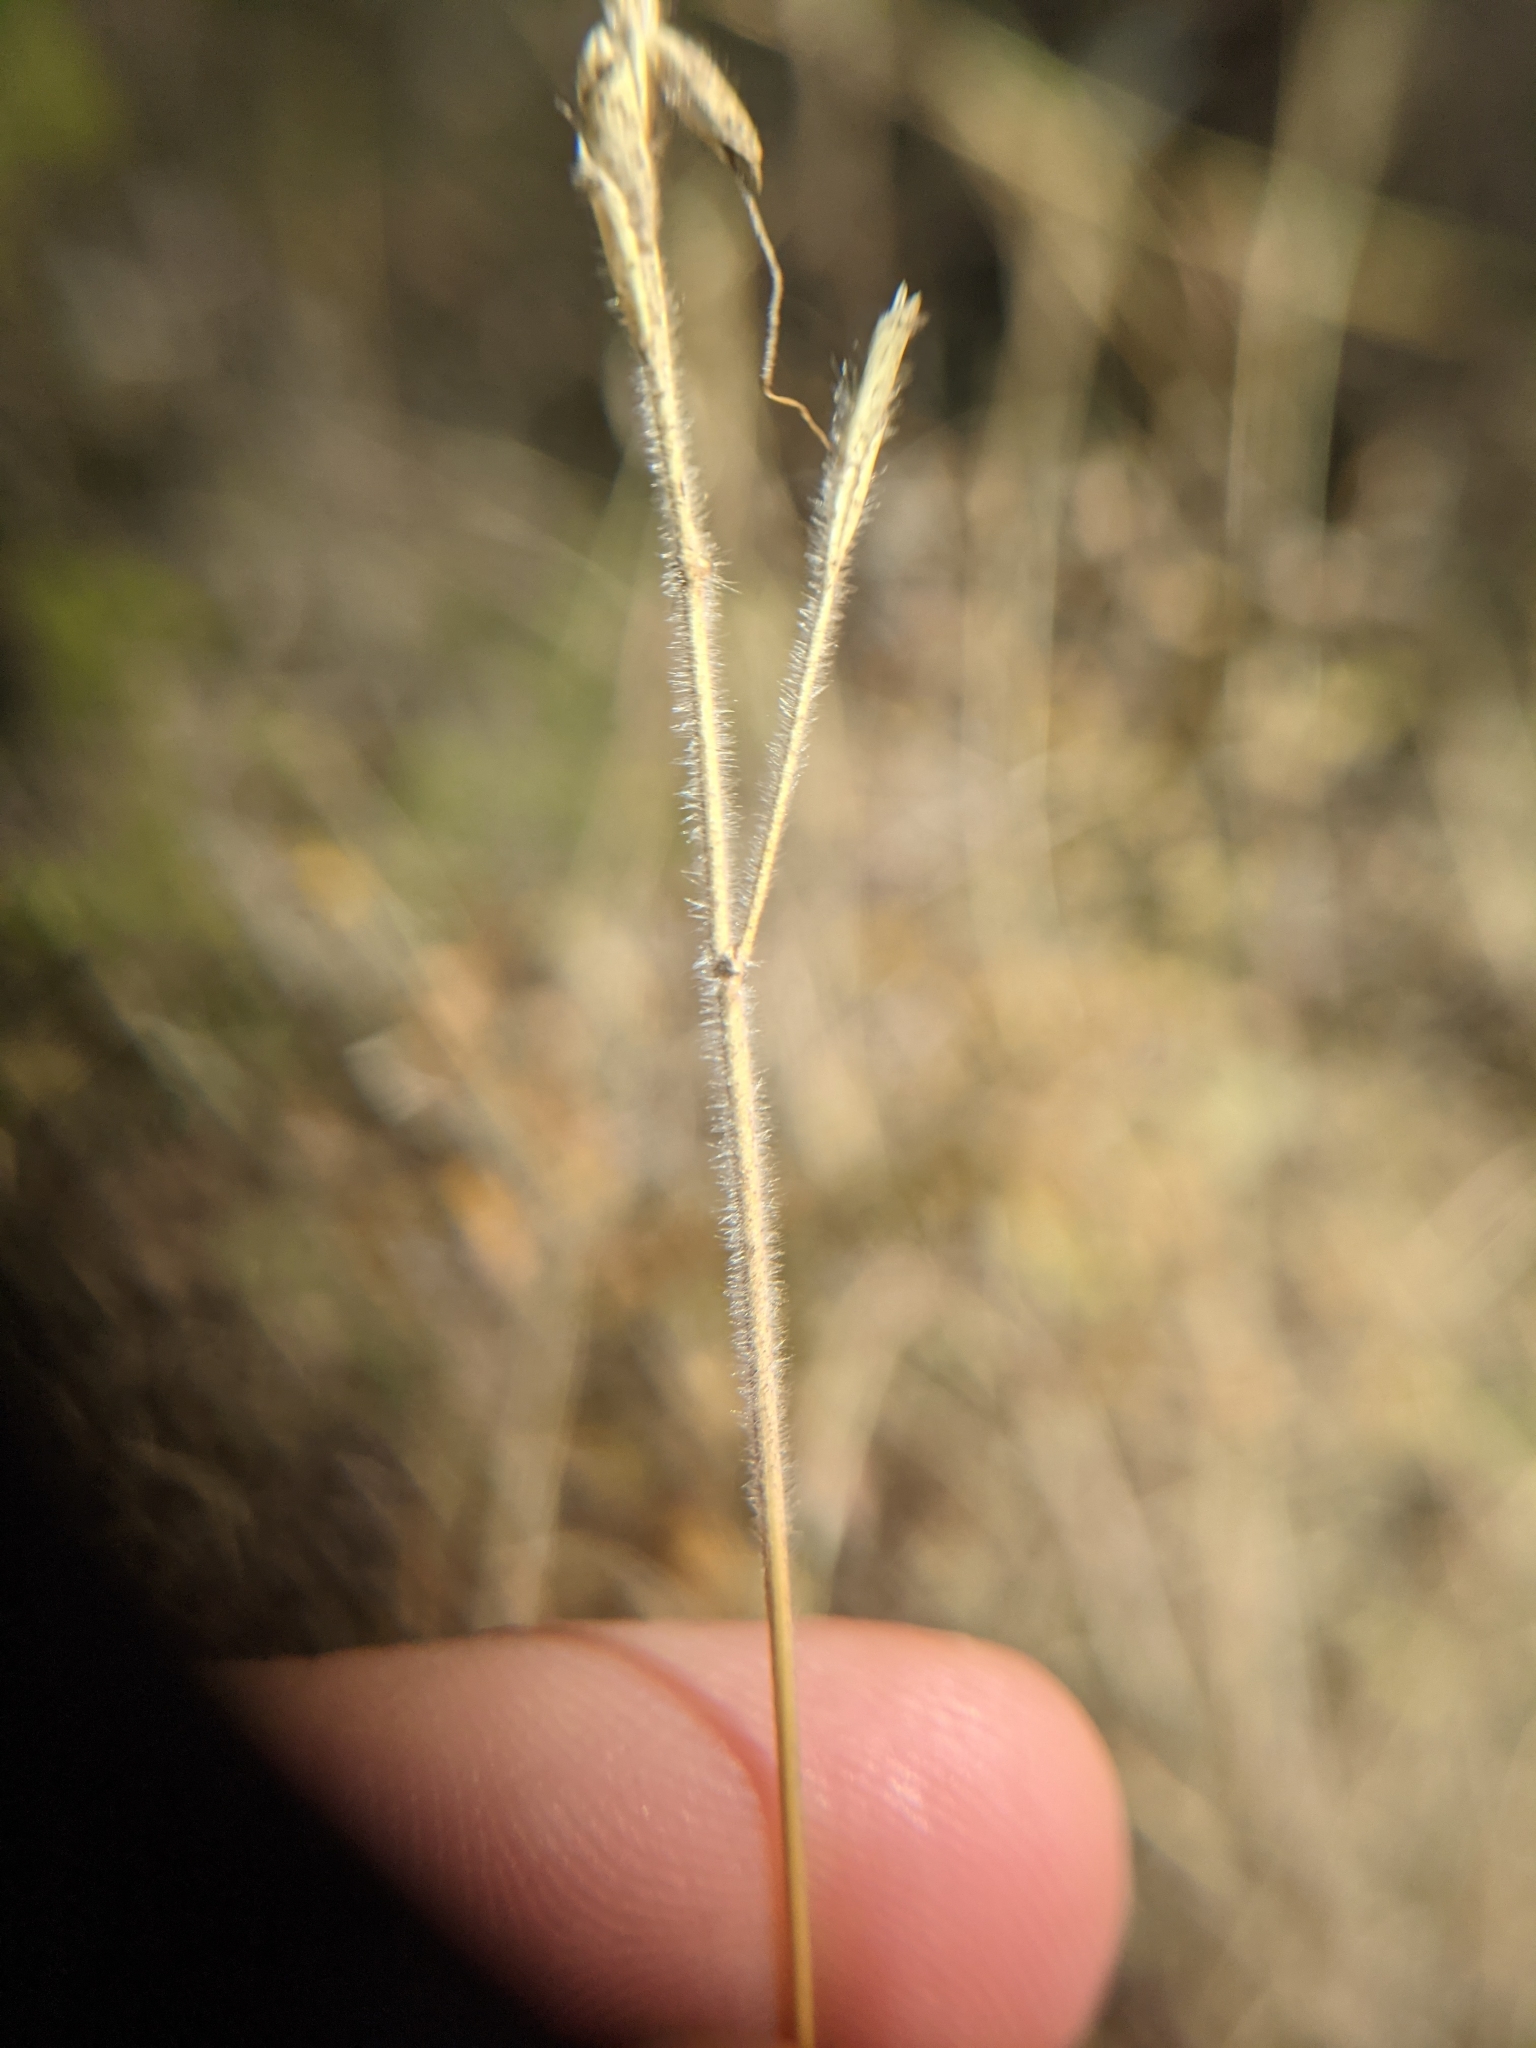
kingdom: Plantae
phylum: Tracheophyta
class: Liliopsida
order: Poales
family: Poaceae
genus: Dichanthium
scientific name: Dichanthium aristatum
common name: Angleton bluestem
